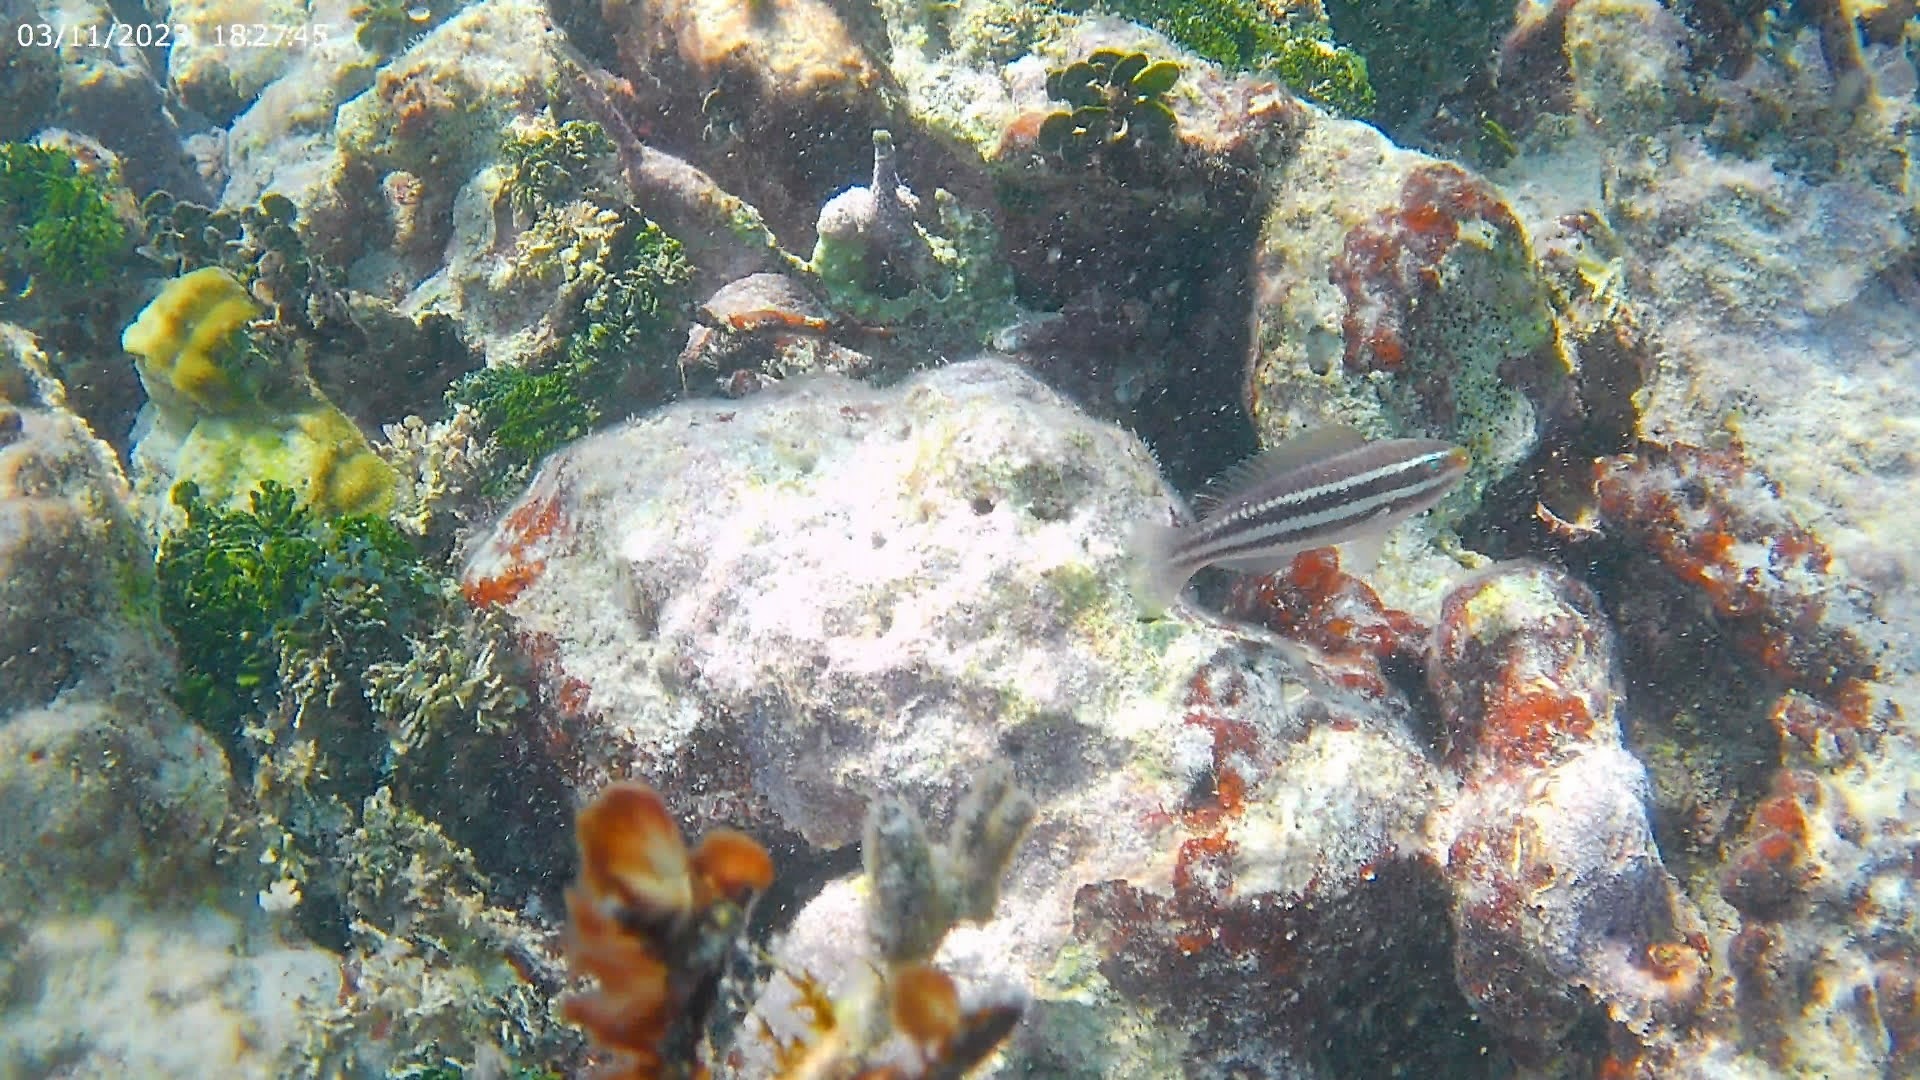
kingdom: Animalia
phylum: Chordata
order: Perciformes
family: Scaridae
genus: Scarus
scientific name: Scarus iseri
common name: Striped parrotfish
